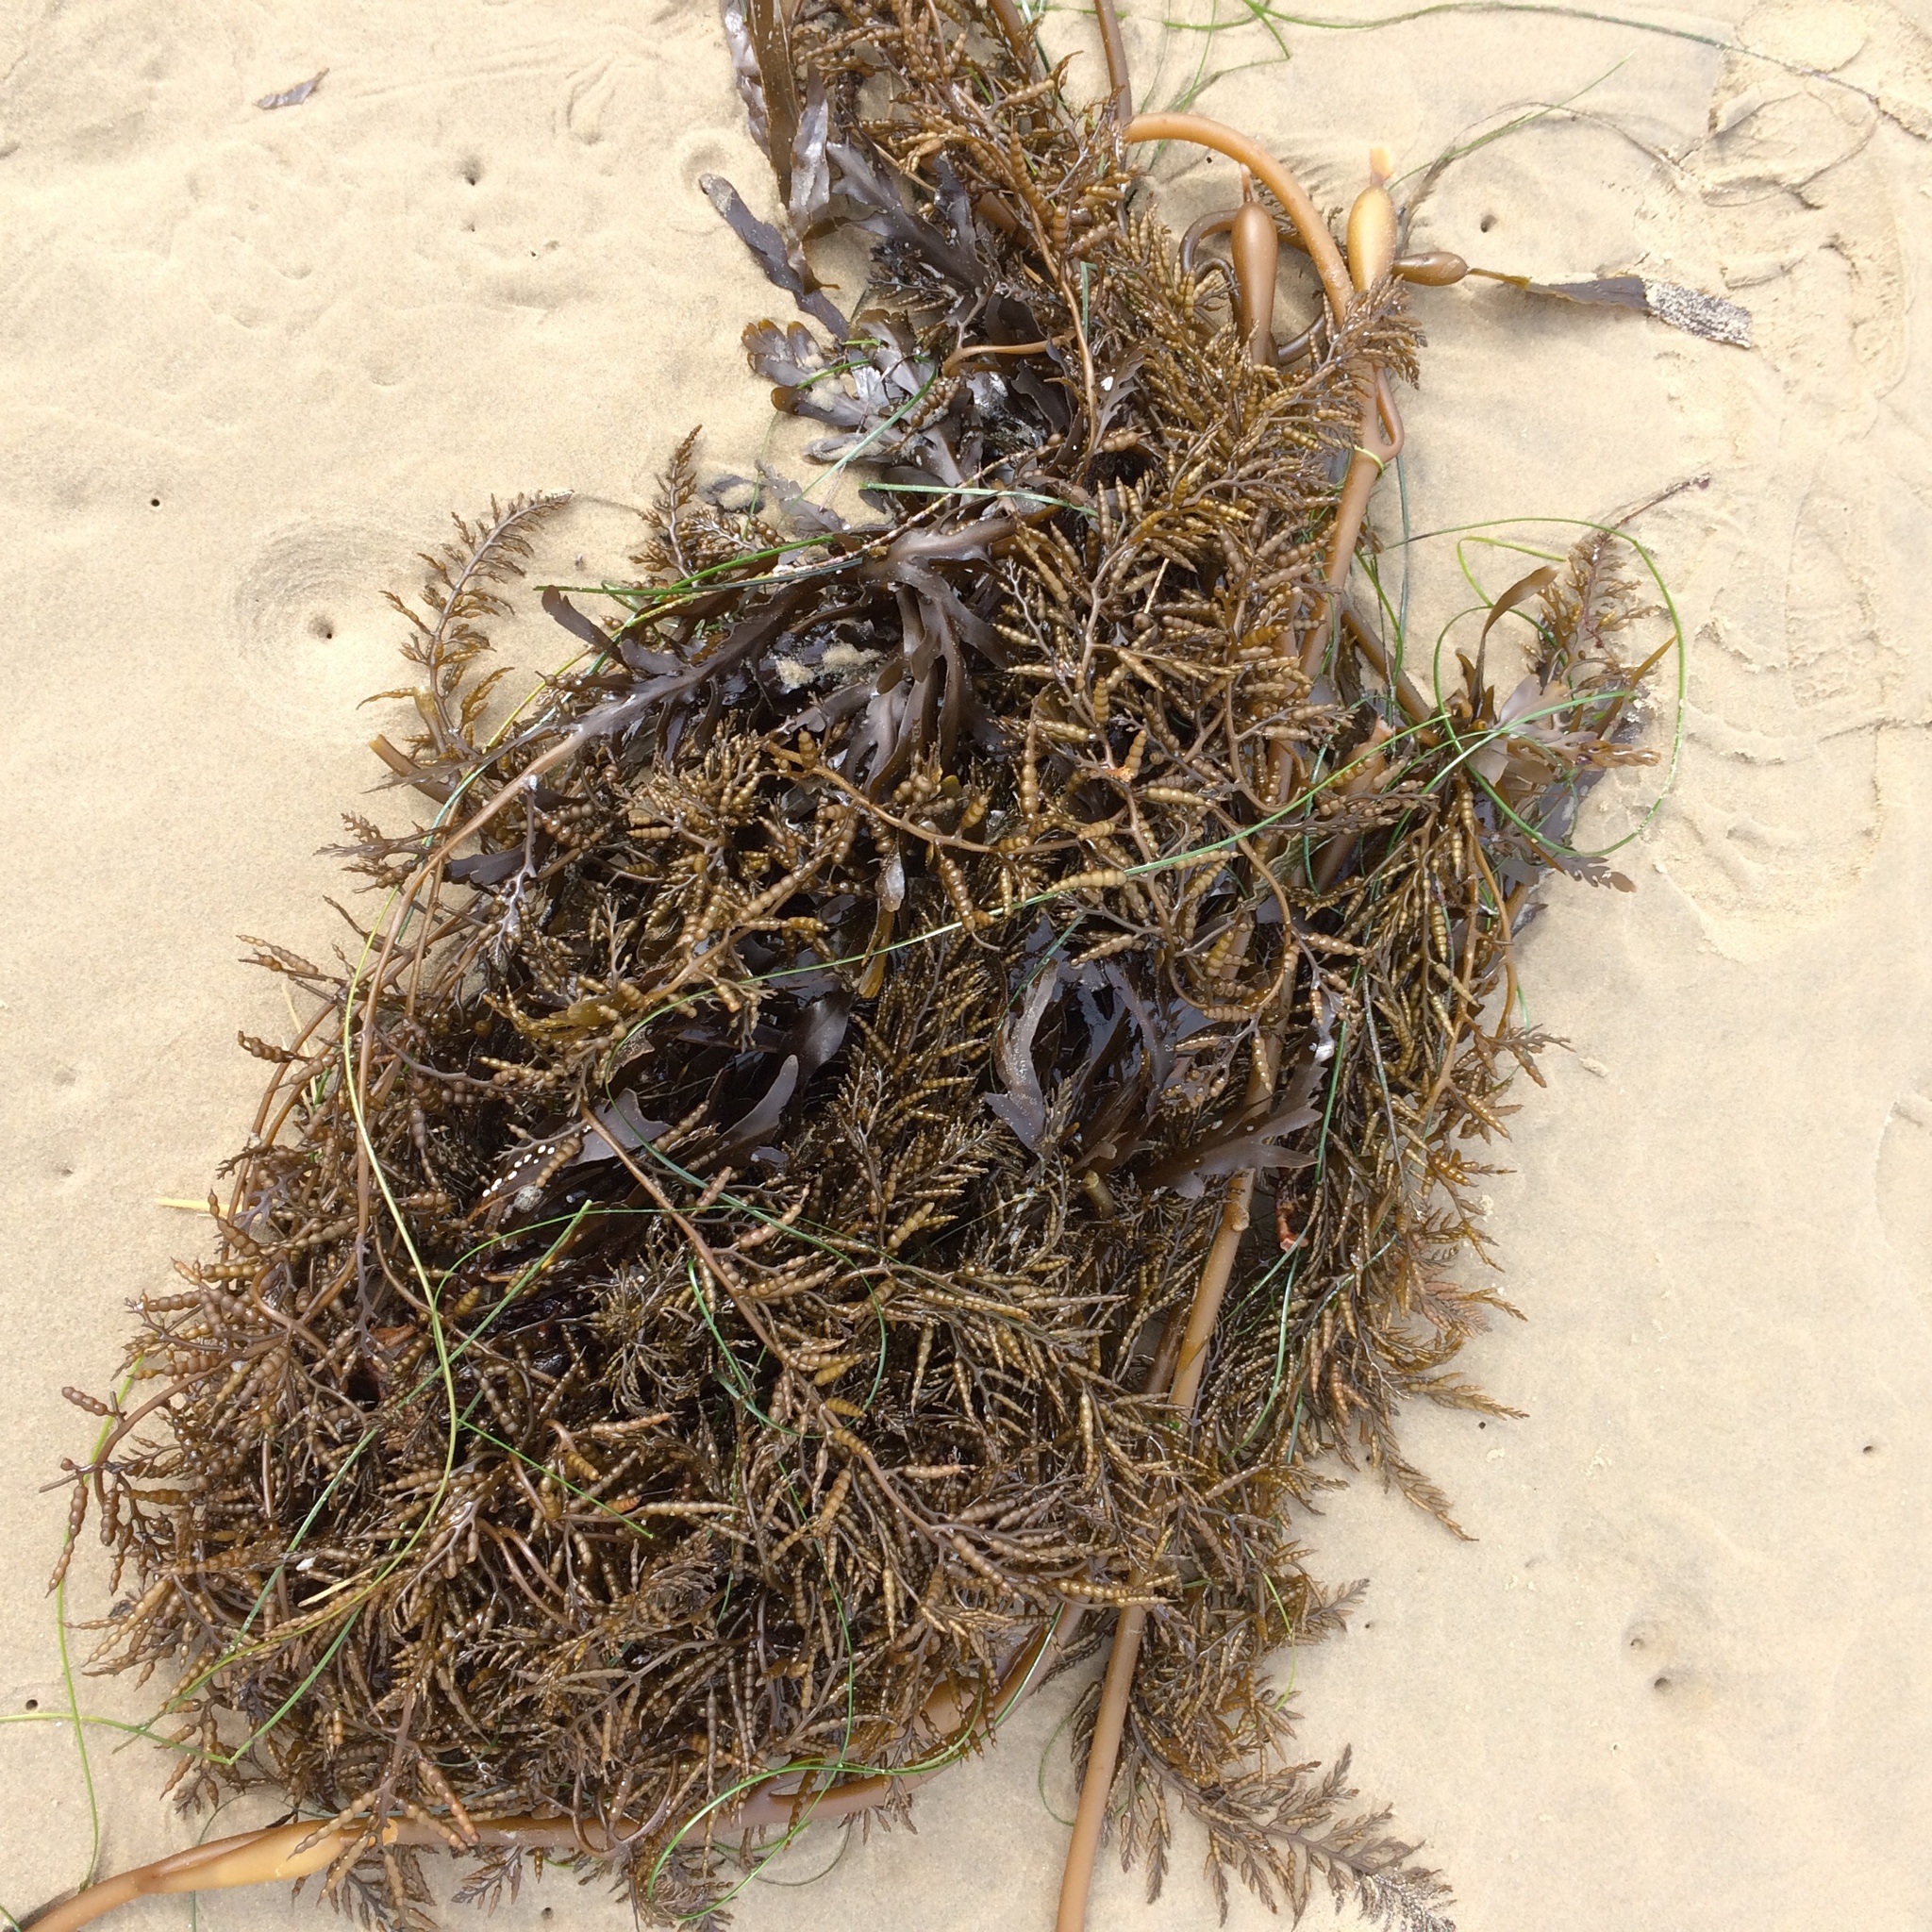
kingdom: Chromista
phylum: Ochrophyta
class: Phaeophyceae
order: Fucales
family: Sargassaceae
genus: Stephanocystis
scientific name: Stephanocystis
